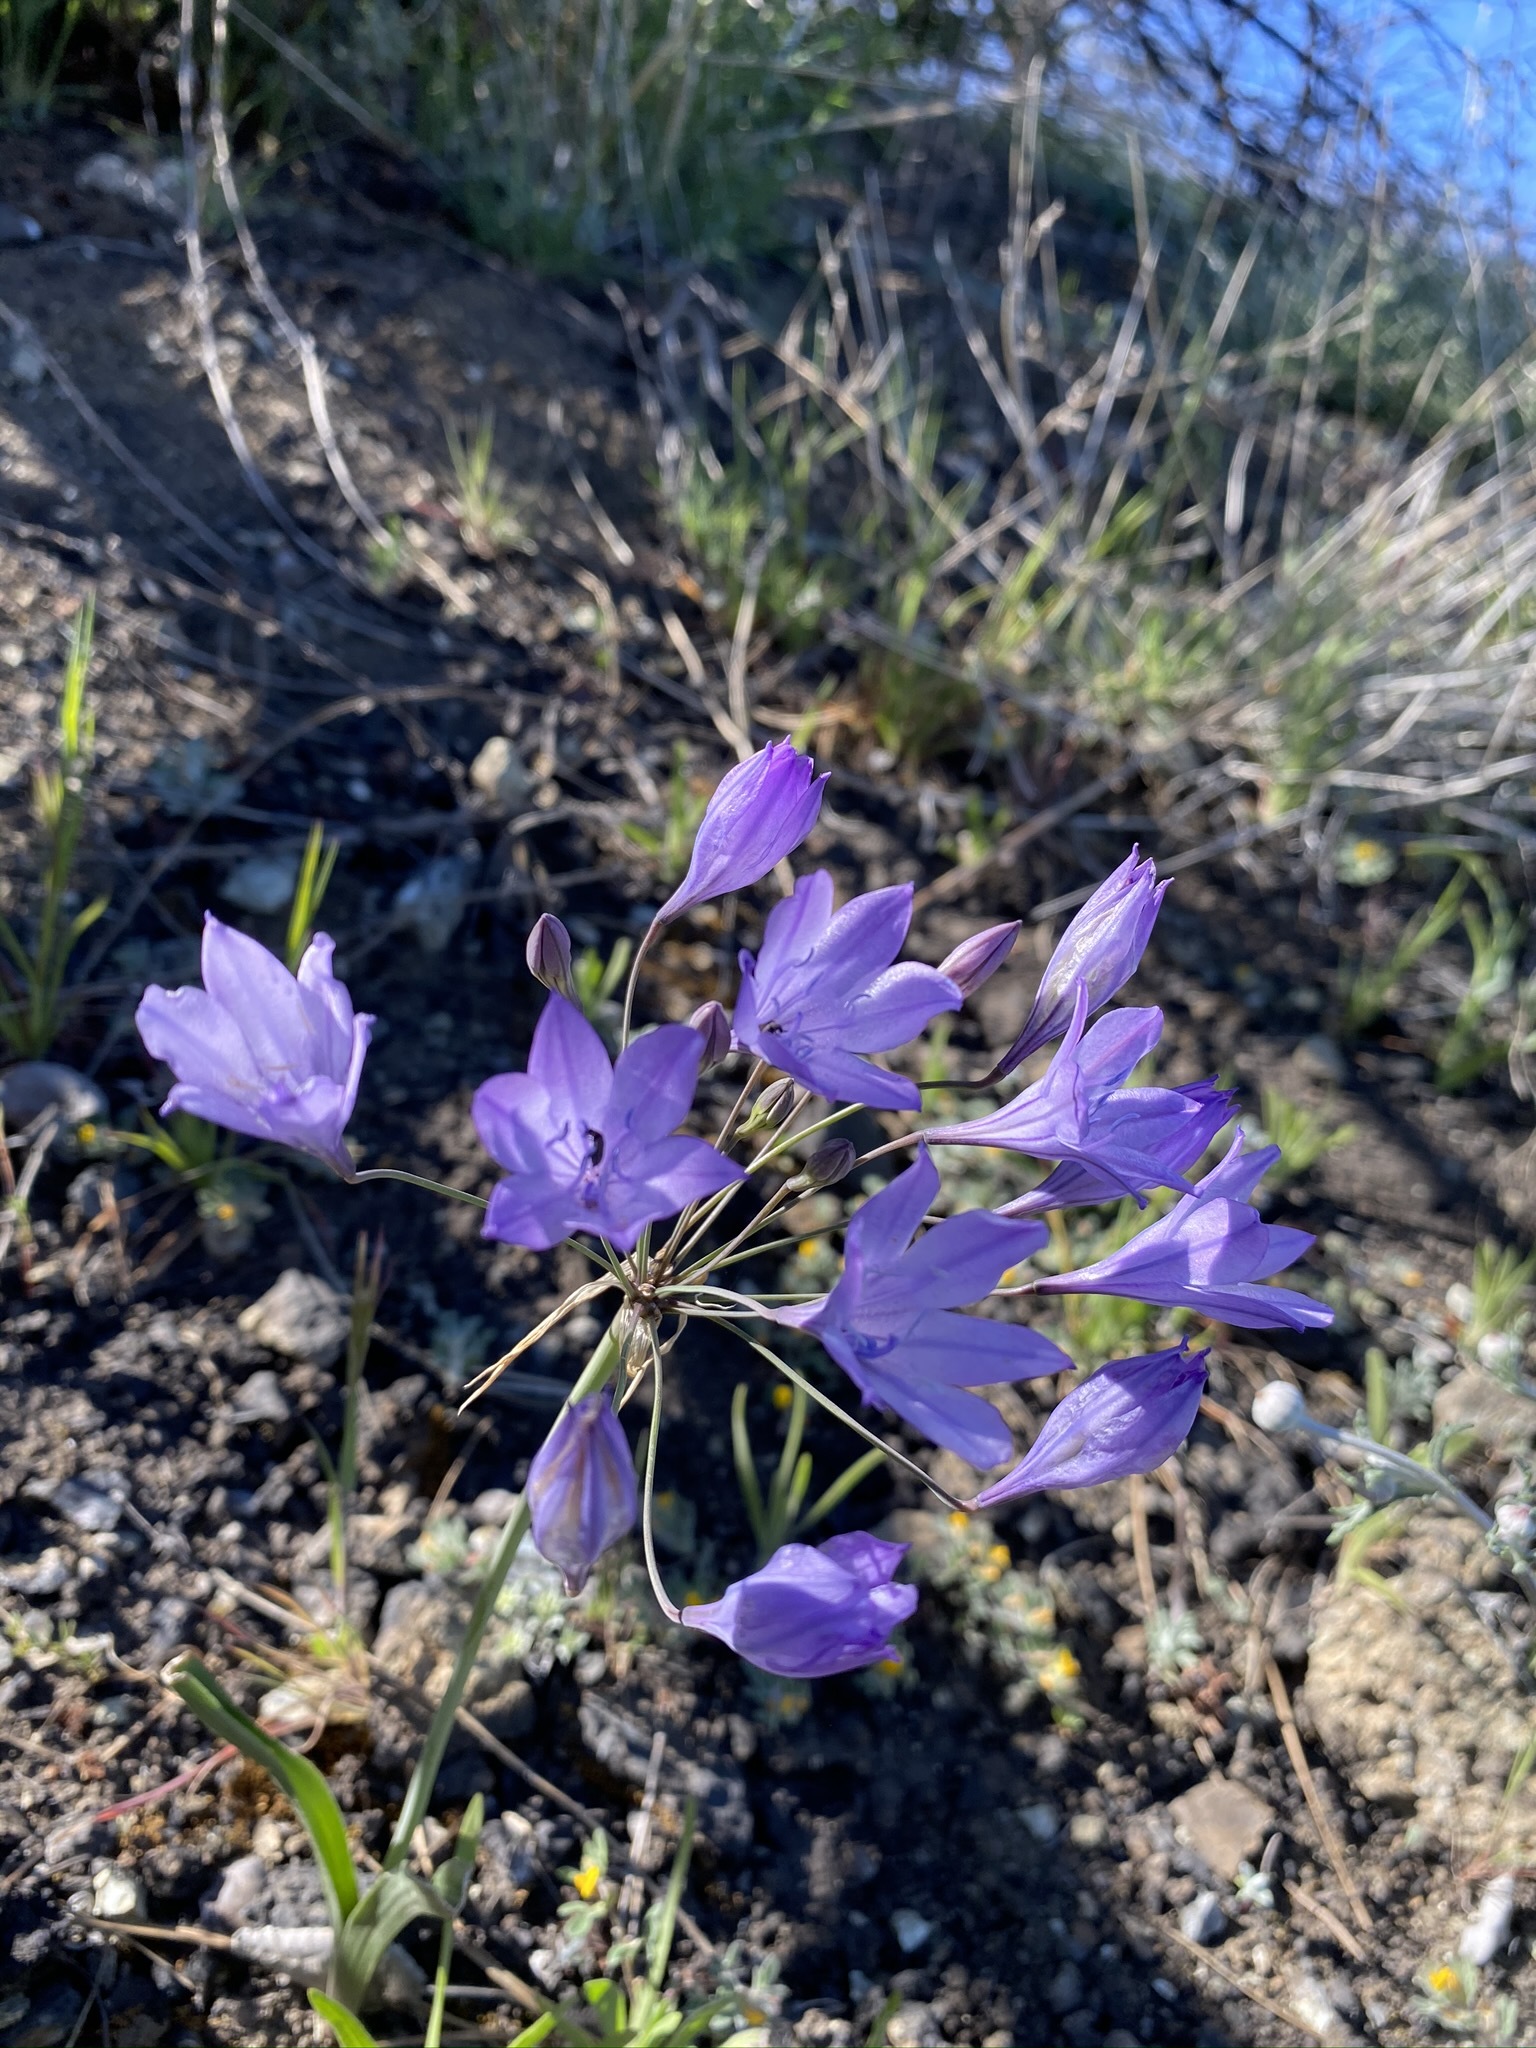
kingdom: Plantae
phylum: Tracheophyta
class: Liliopsida
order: Asparagales
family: Asparagaceae
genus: Triteleia
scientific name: Triteleia laxa
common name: Triplet-lily
